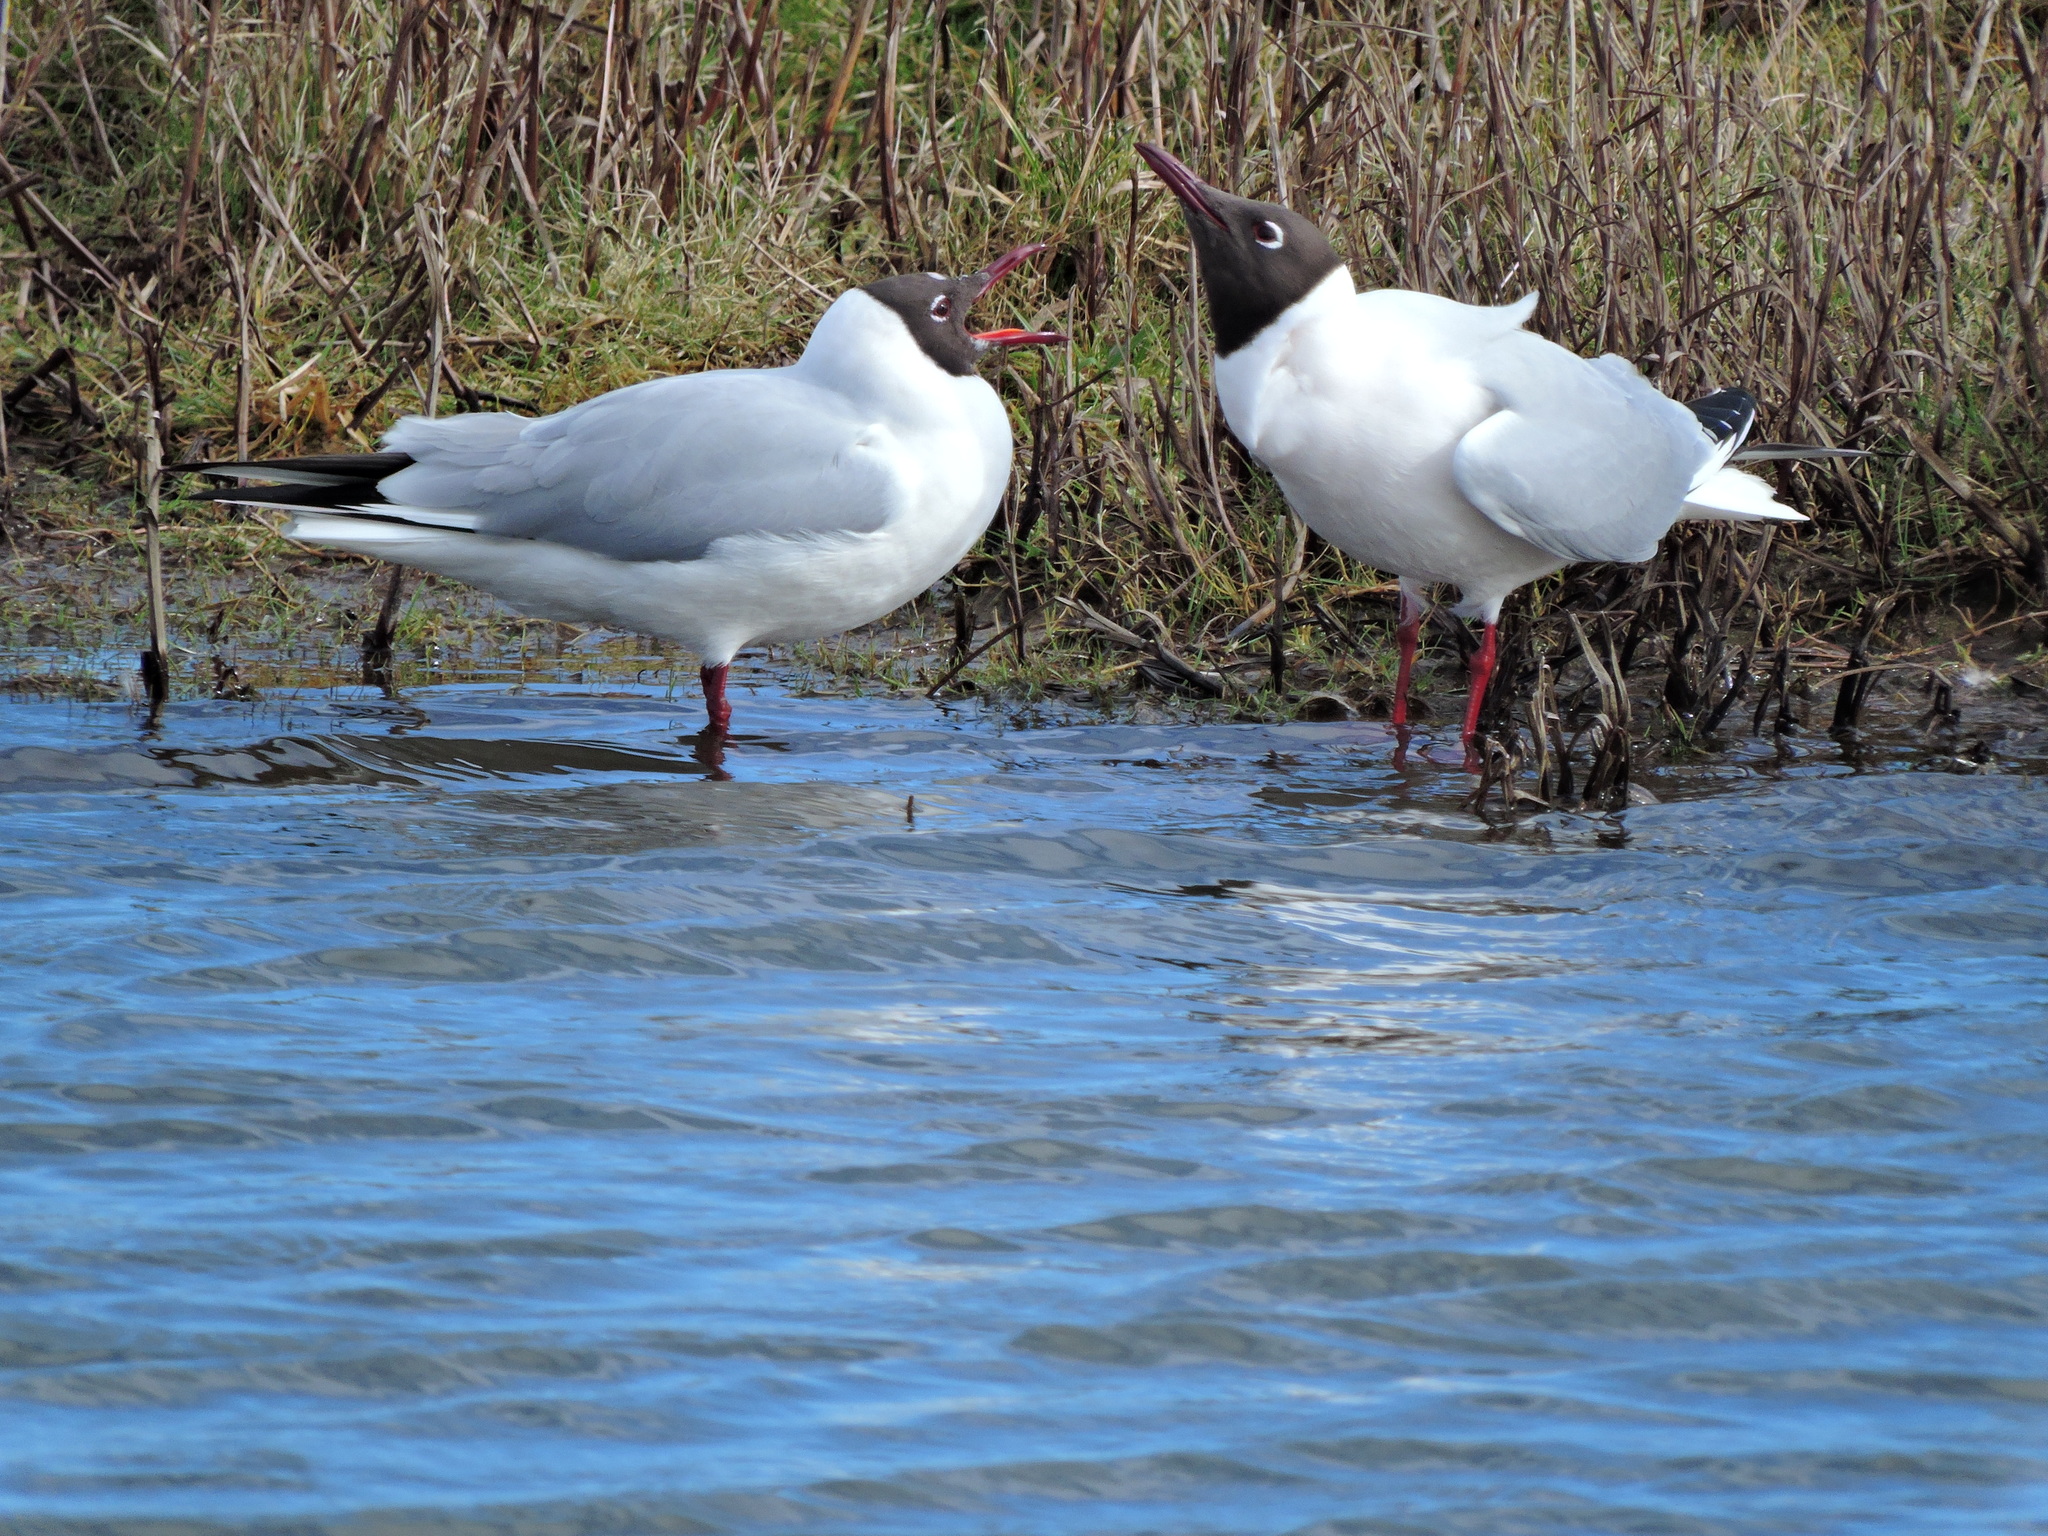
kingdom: Animalia
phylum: Chordata
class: Aves
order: Charadriiformes
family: Laridae
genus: Chroicocephalus
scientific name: Chroicocephalus ridibundus
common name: Black-headed gull
